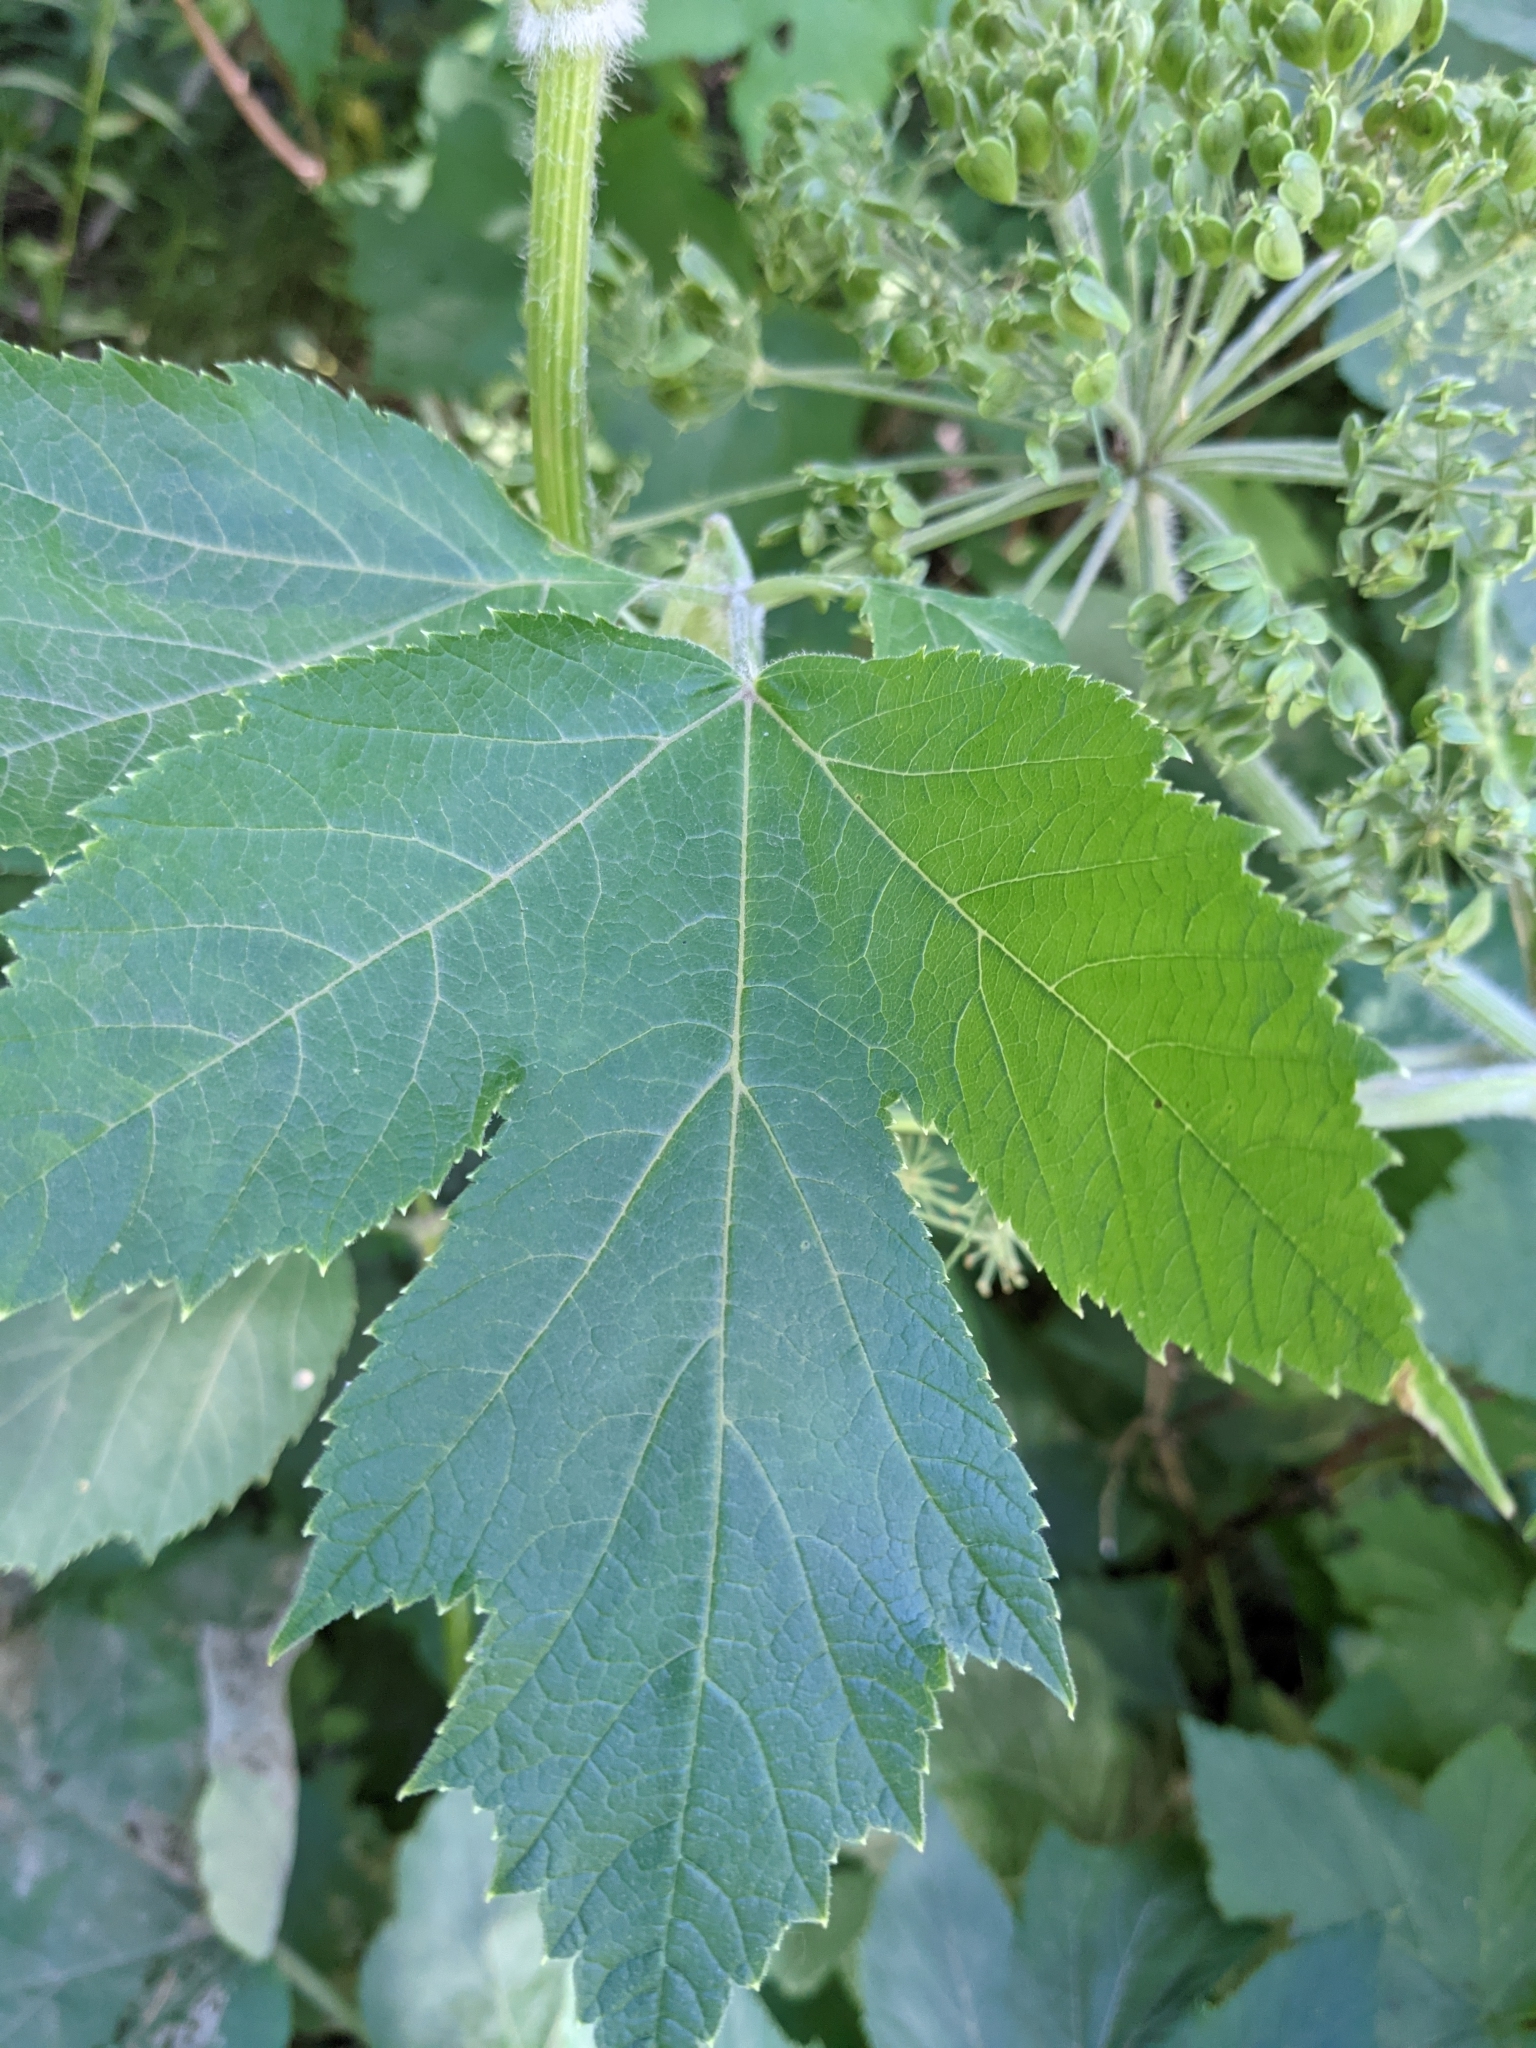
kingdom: Plantae
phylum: Tracheophyta
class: Magnoliopsida
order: Apiales
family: Apiaceae
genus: Heracleum
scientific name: Heracleum maximum
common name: American cow parsnip
